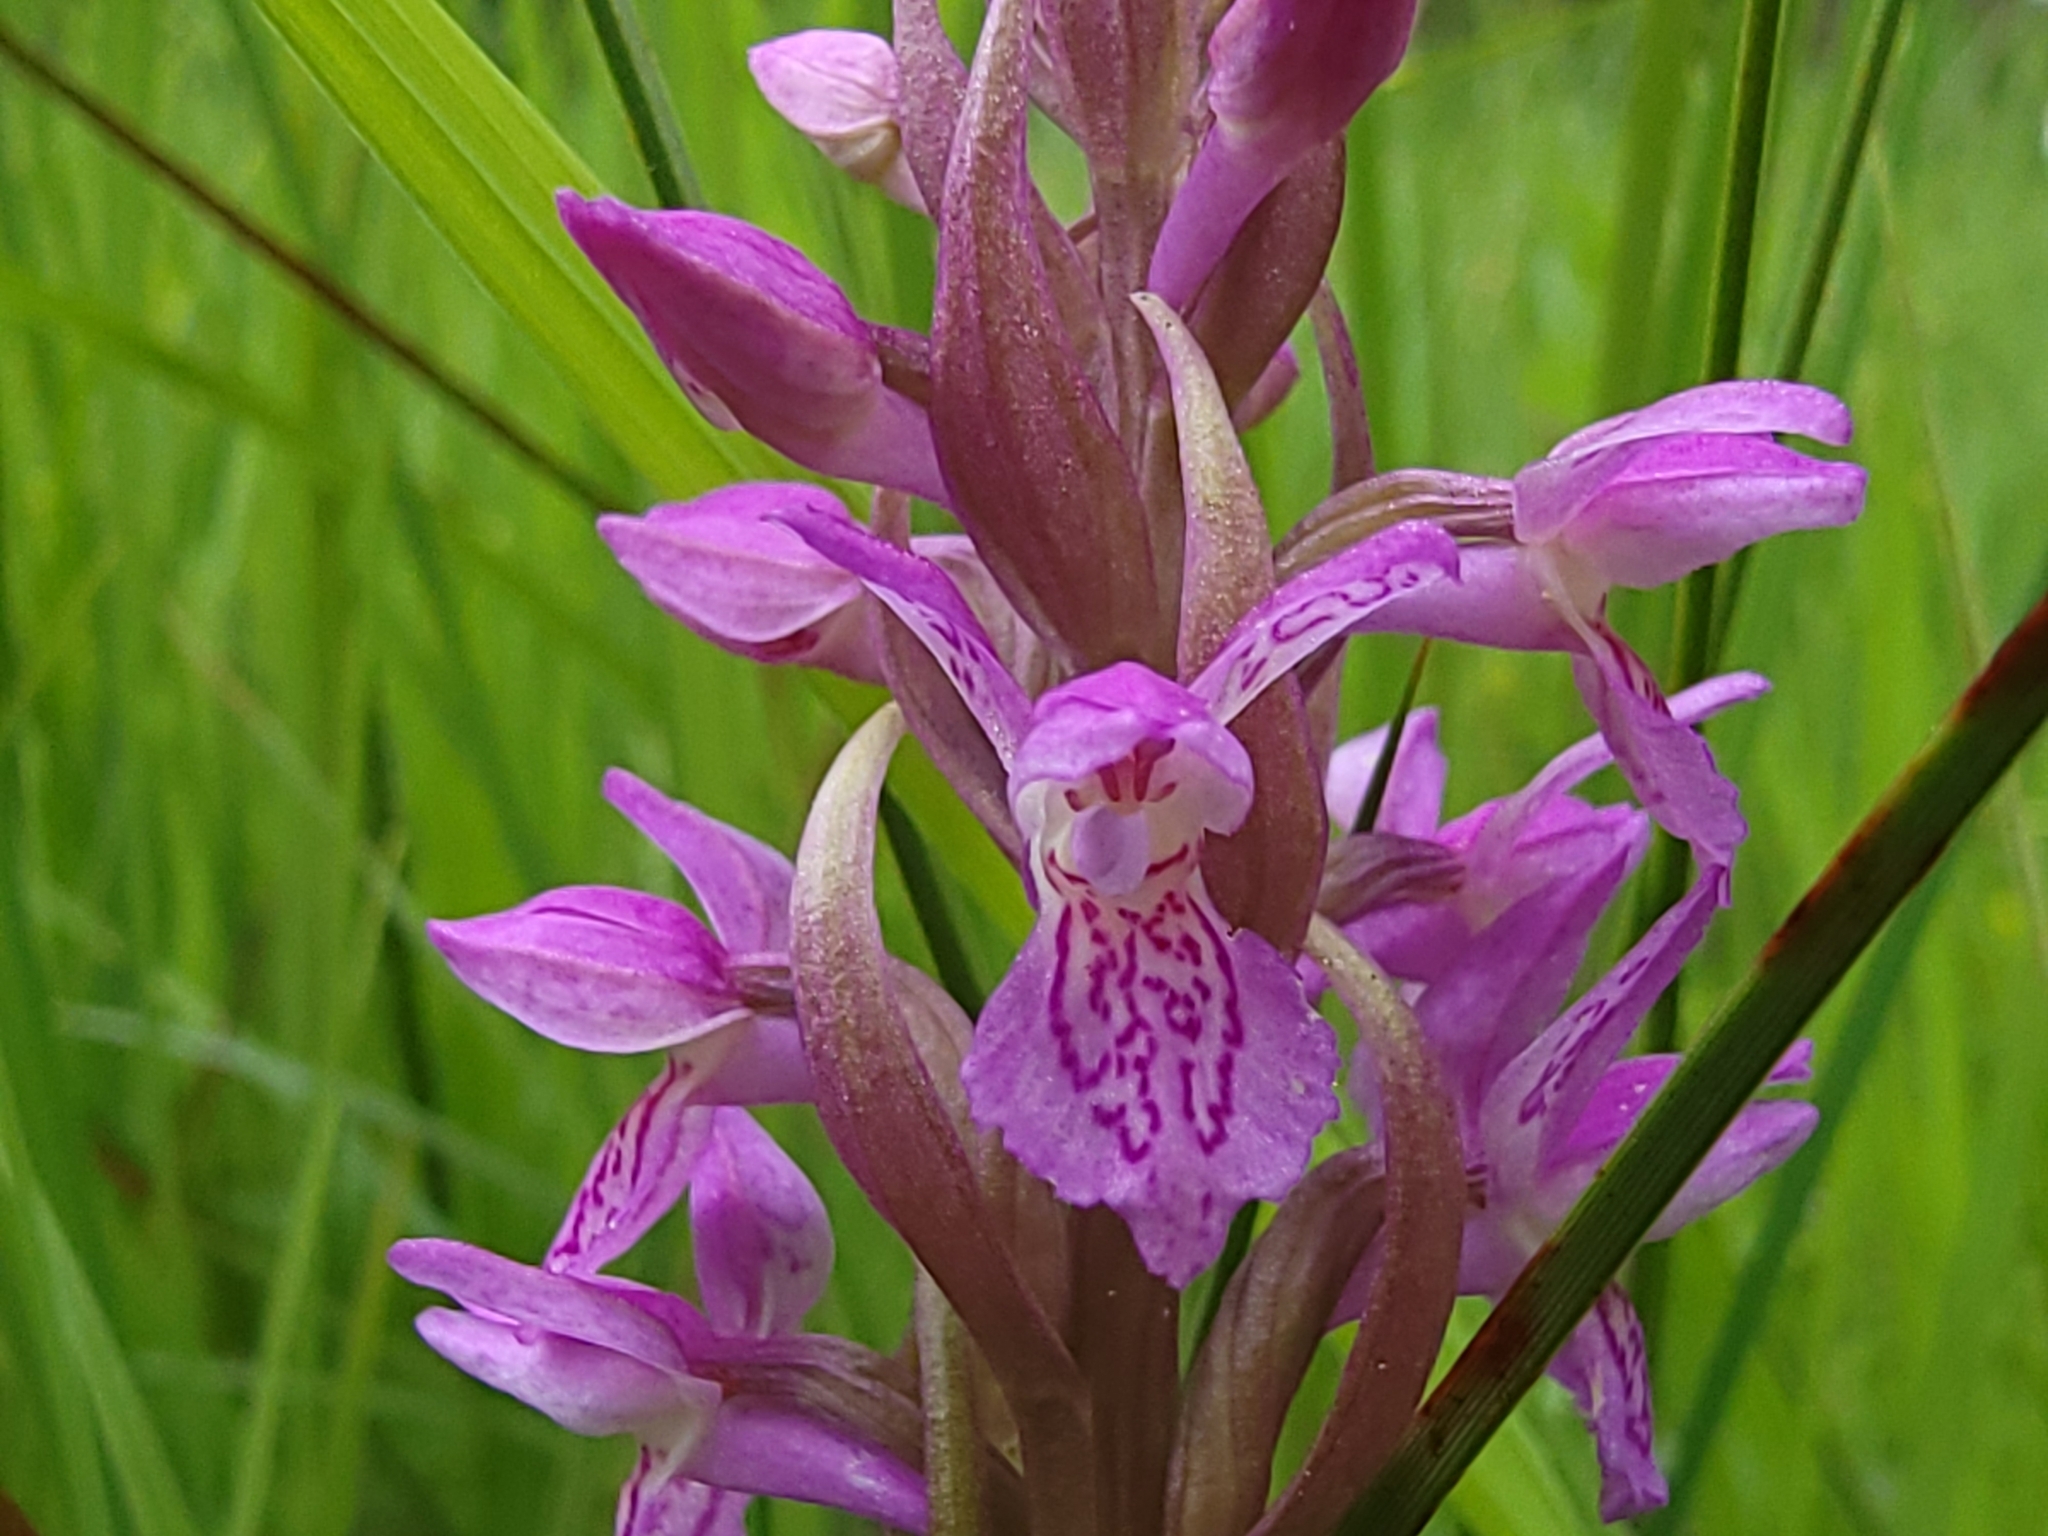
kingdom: Plantae
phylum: Tracheophyta
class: Liliopsida
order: Asparagales
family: Orchidaceae
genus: Dactylorhiza
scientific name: Dactylorhiza incarnata
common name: Early marsh-orchid
